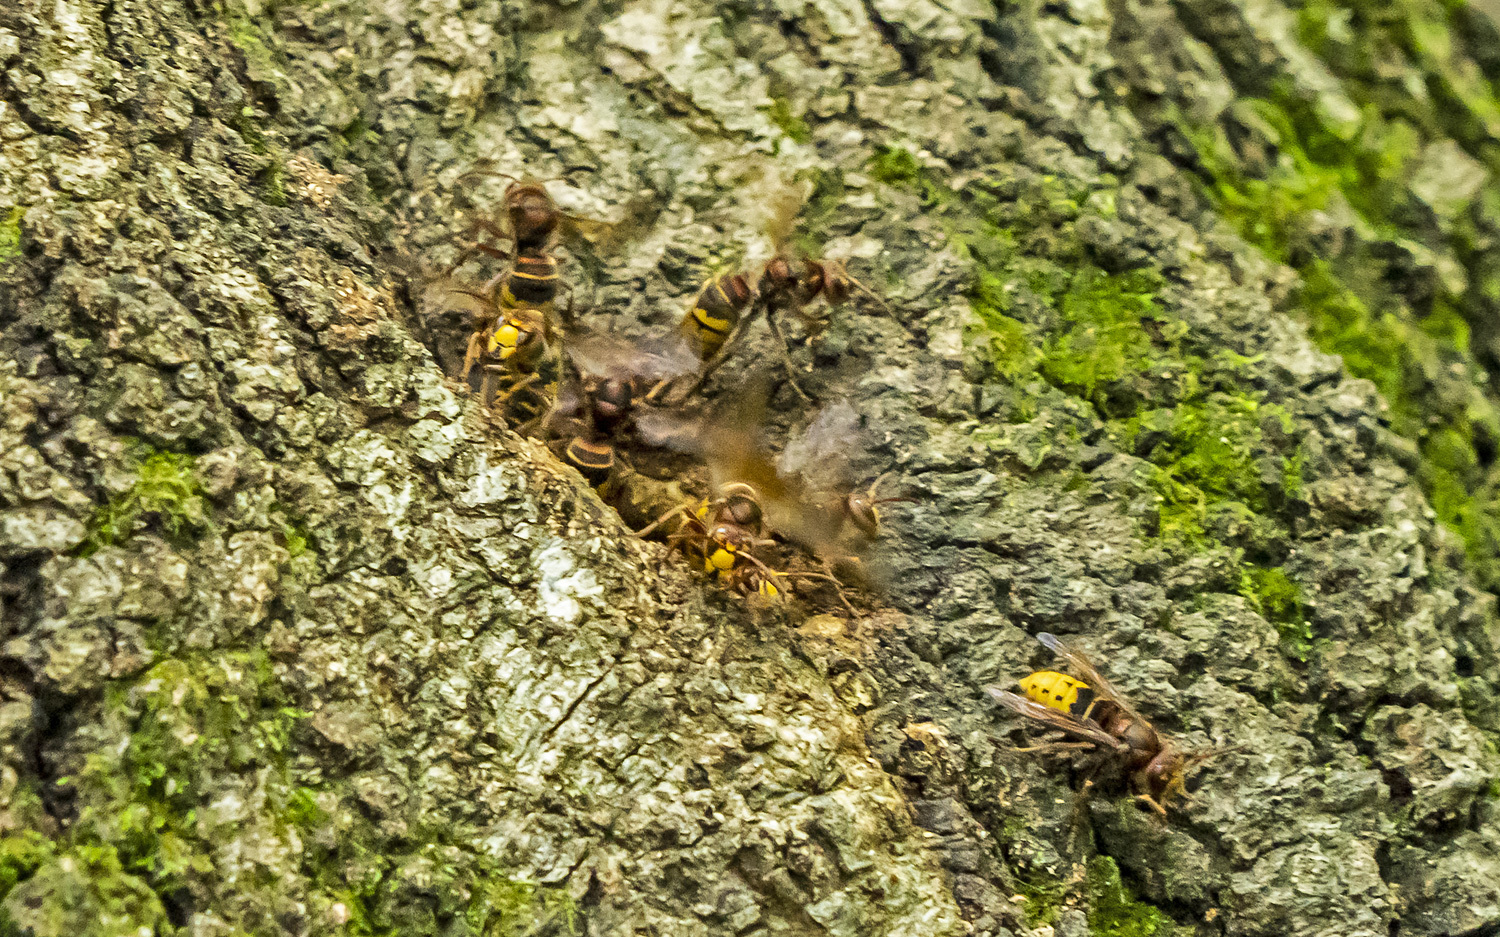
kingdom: Animalia
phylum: Arthropoda
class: Insecta
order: Hymenoptera
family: Vespidae
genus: Vespa
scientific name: Vespa crabro
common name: Hornet
